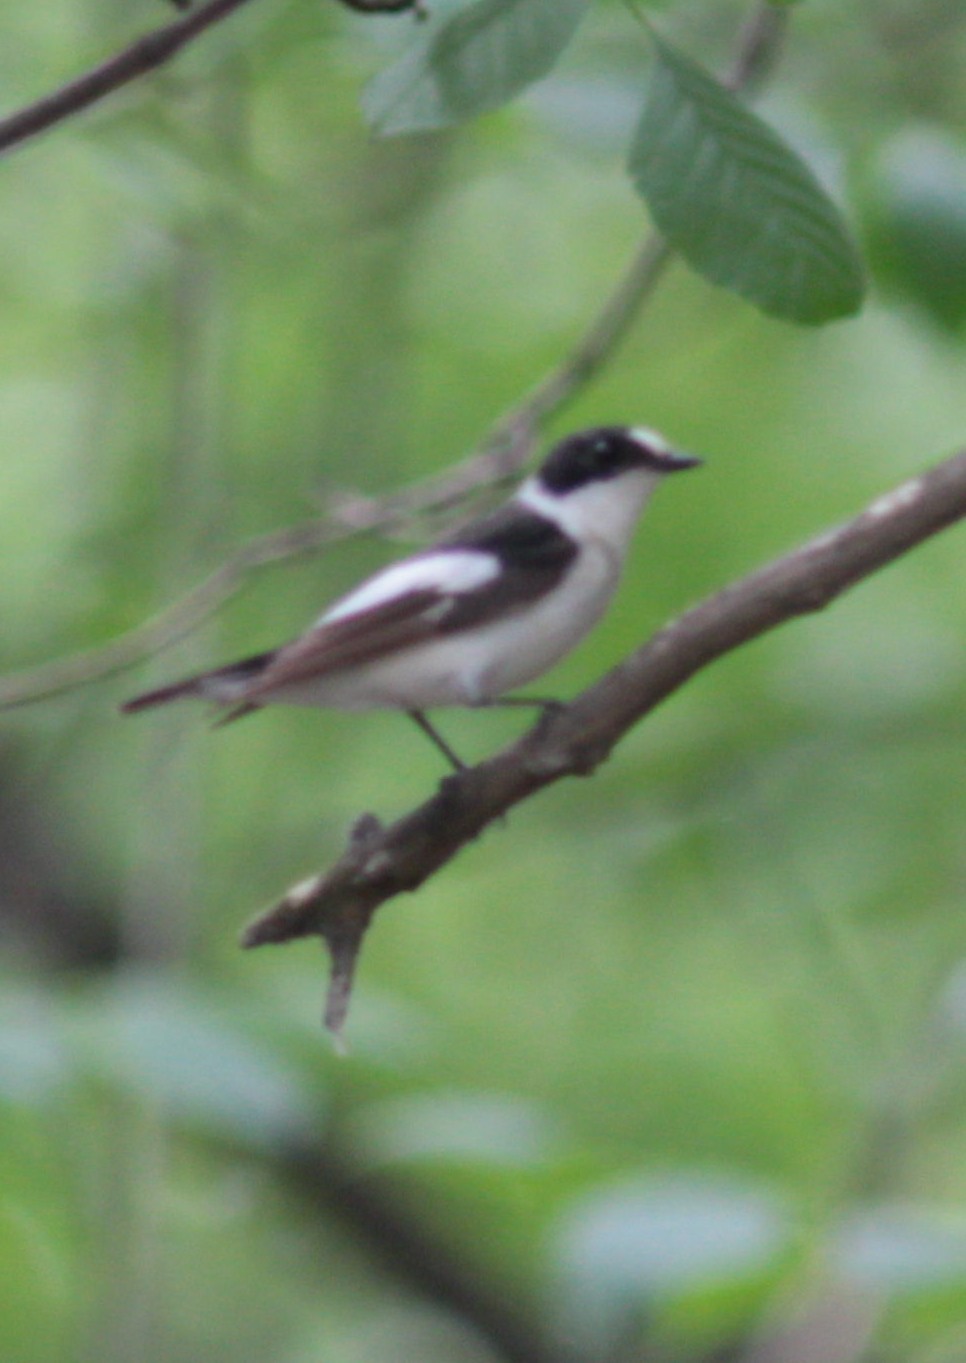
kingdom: Animalia
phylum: Chordata
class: Aves
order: Passeriformes
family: Muscicapidae
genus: Ficedula
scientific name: Ficedula albicollis
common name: Collared flycatcher
